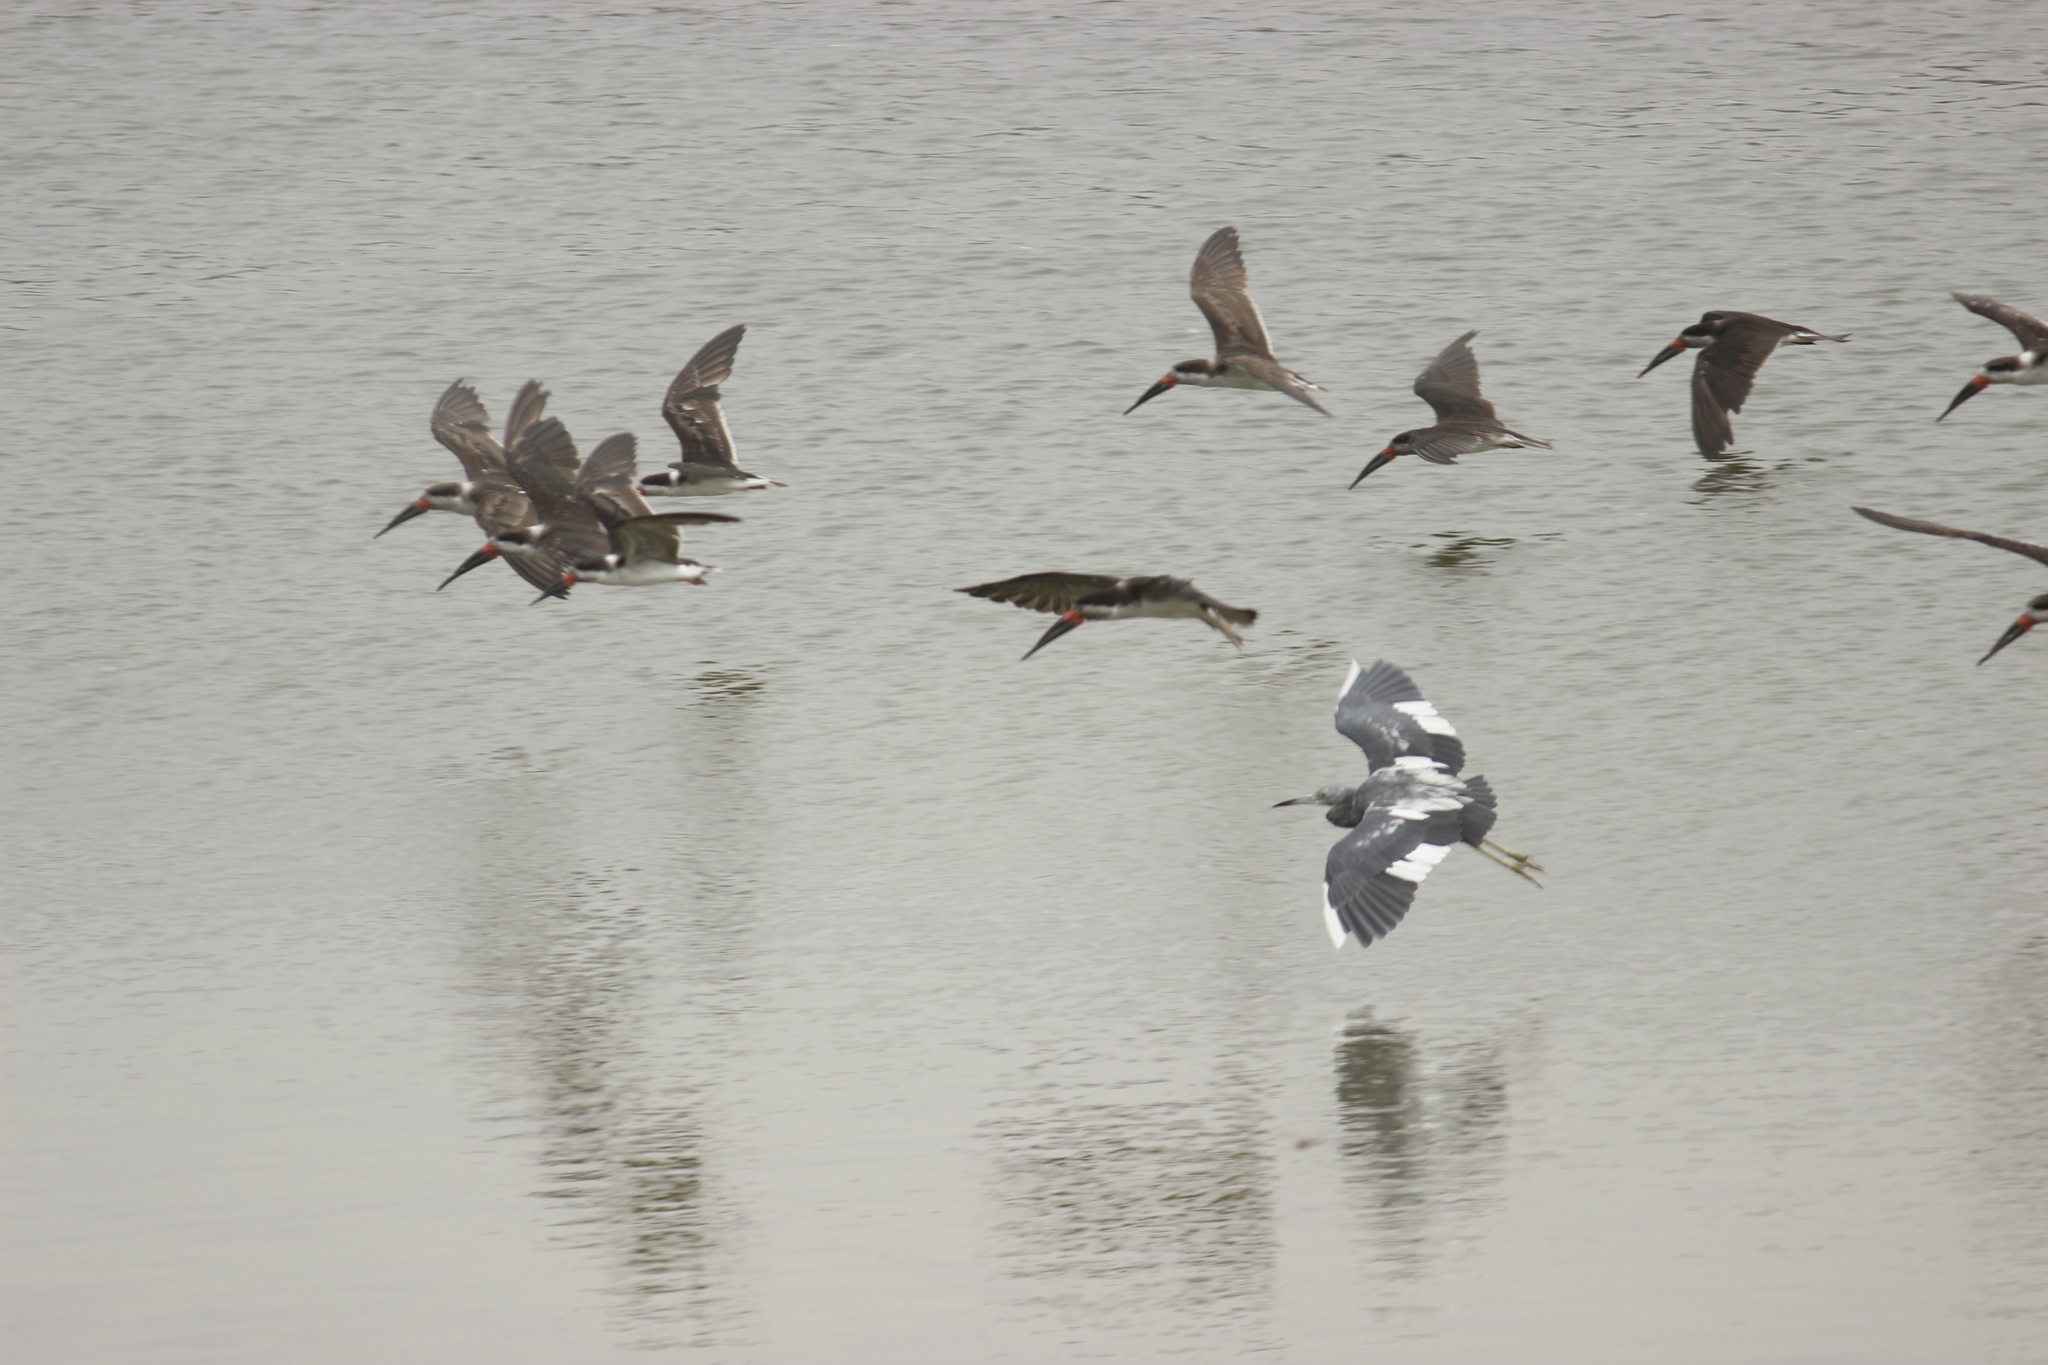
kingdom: Animalia
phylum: Chordata
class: Aves
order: Pelecaniformes
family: Ardeidae
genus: Egretta
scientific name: Egretta caerulea
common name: Little blue heron
